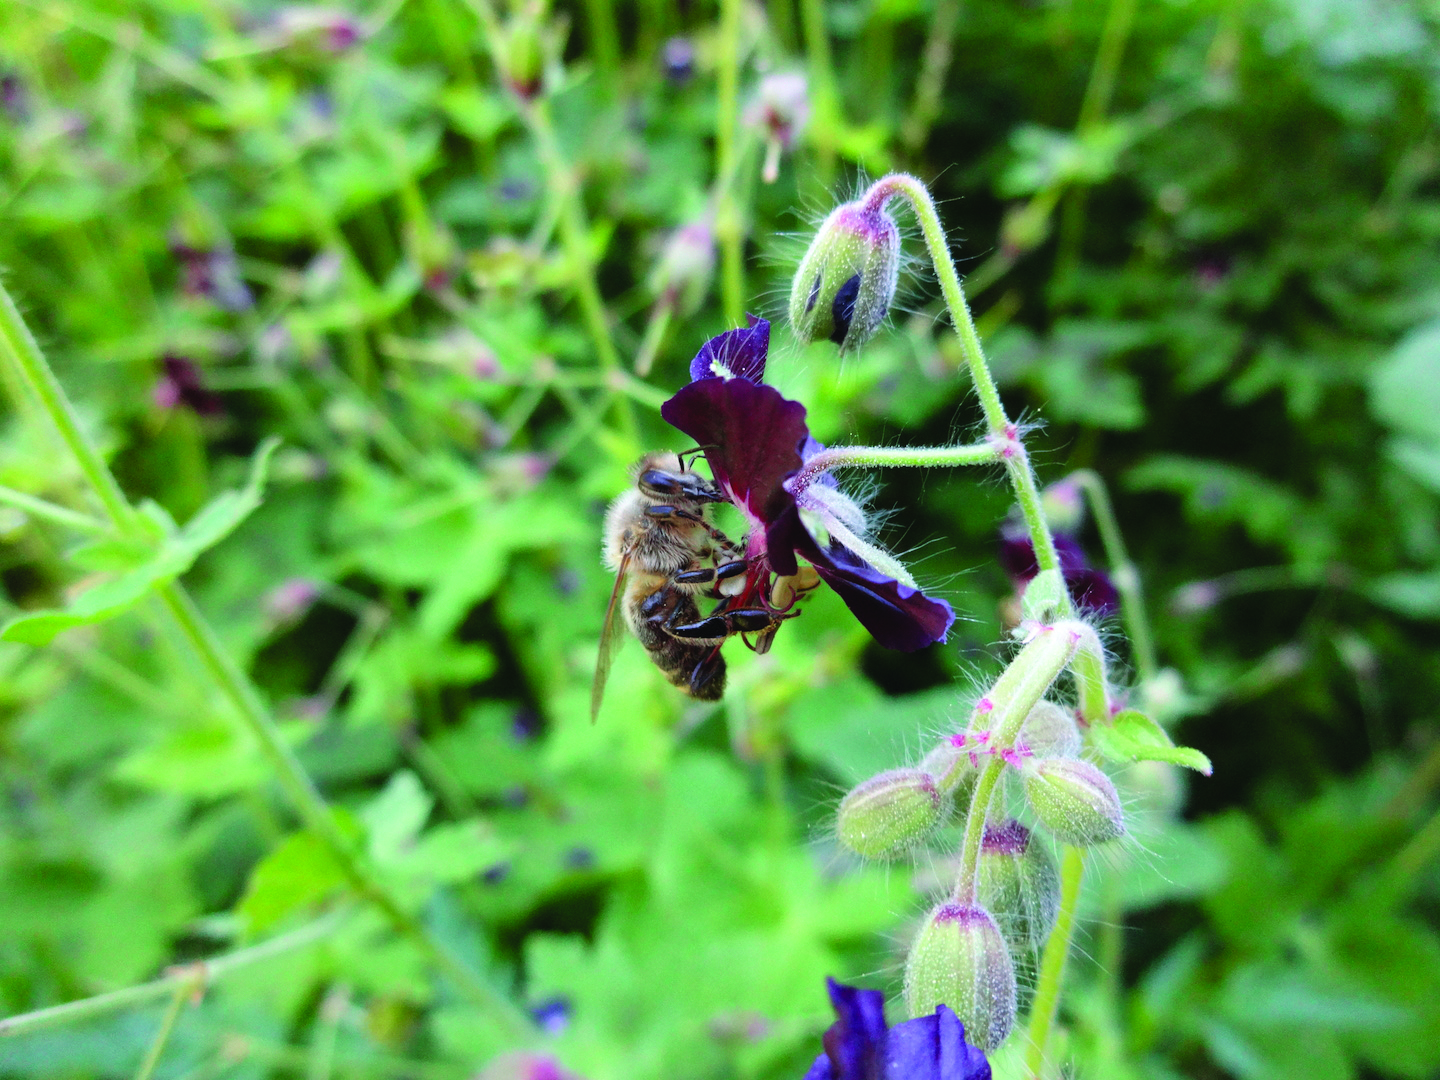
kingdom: Plantae
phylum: Tracheophyta
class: Magnoliopsida
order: Geraniales
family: Geraniaceae
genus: Geranium
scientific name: Geranium phaeum
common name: Dusky crane's-bill
